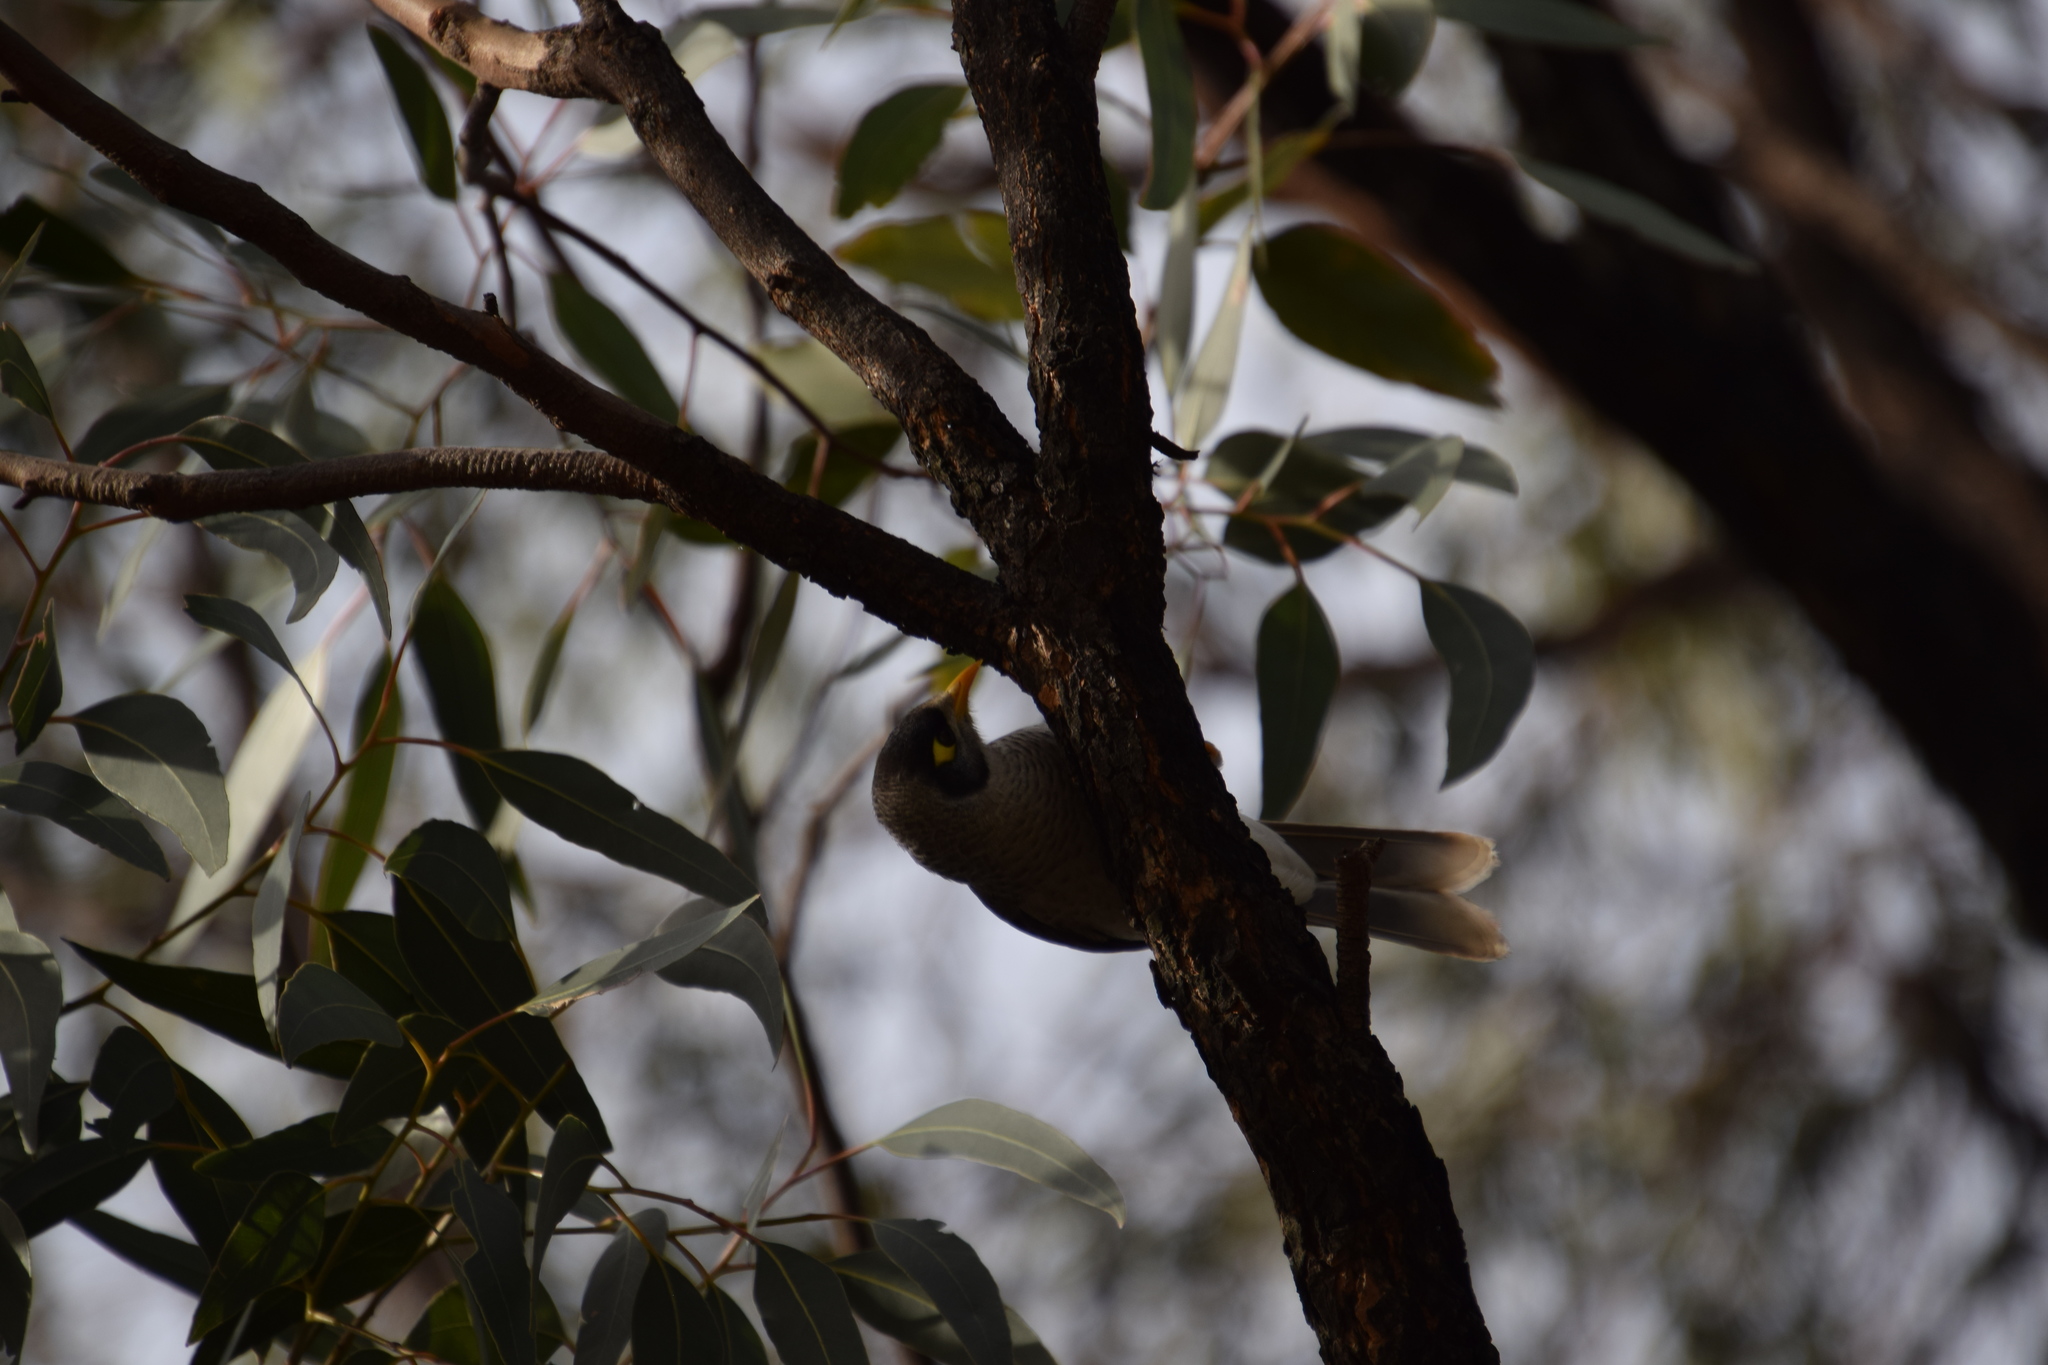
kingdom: Animalia
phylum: Chordata
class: Aves
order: Passeriformes
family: Meliphagidae
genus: Manorina
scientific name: Manorina melanocephala
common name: Noisy miner
